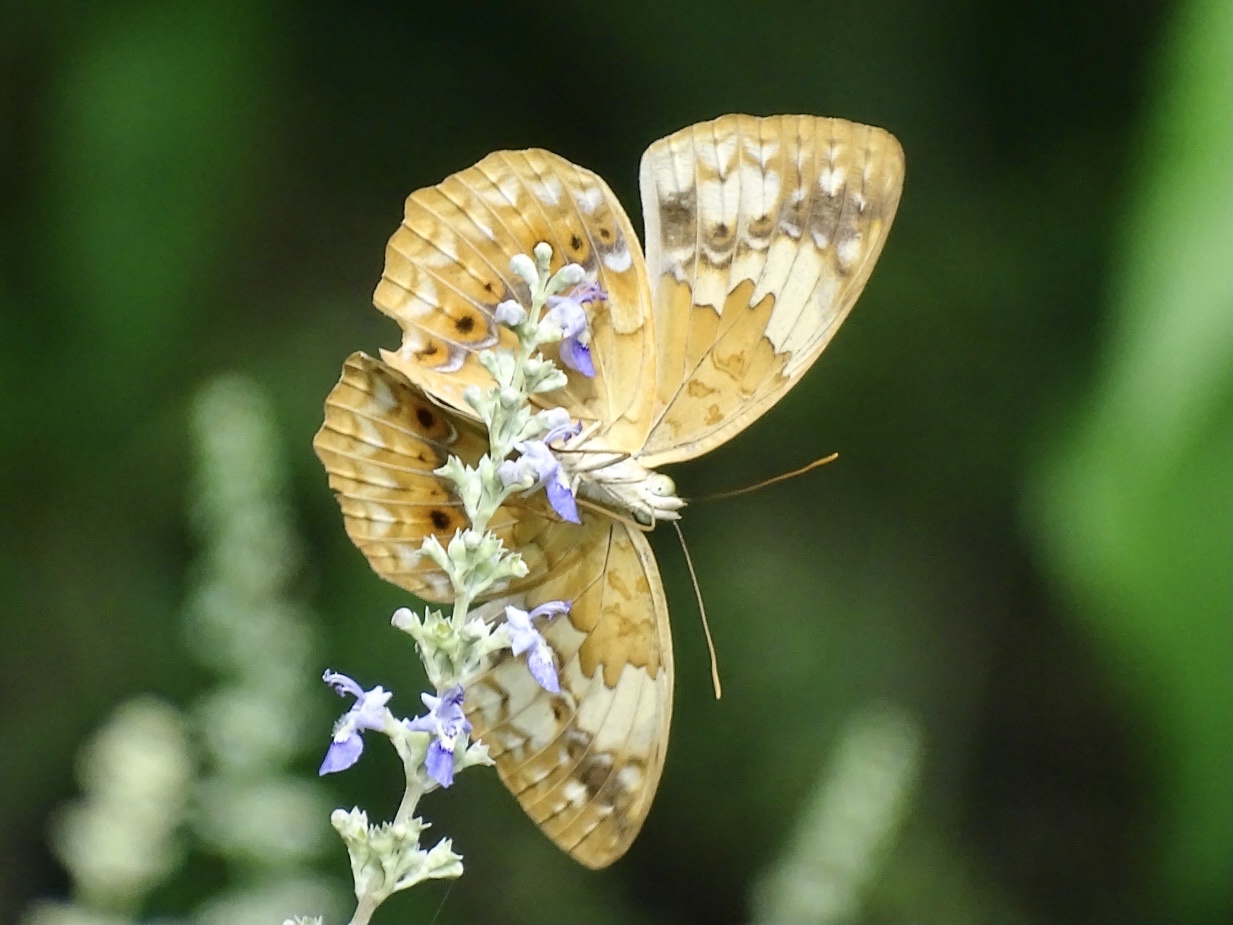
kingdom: Animalia
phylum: Arthropoda
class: Insecta
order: Lepidoptera
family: Nymphalidae
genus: Cupha
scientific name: Cupha erymanthis
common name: Rustic
